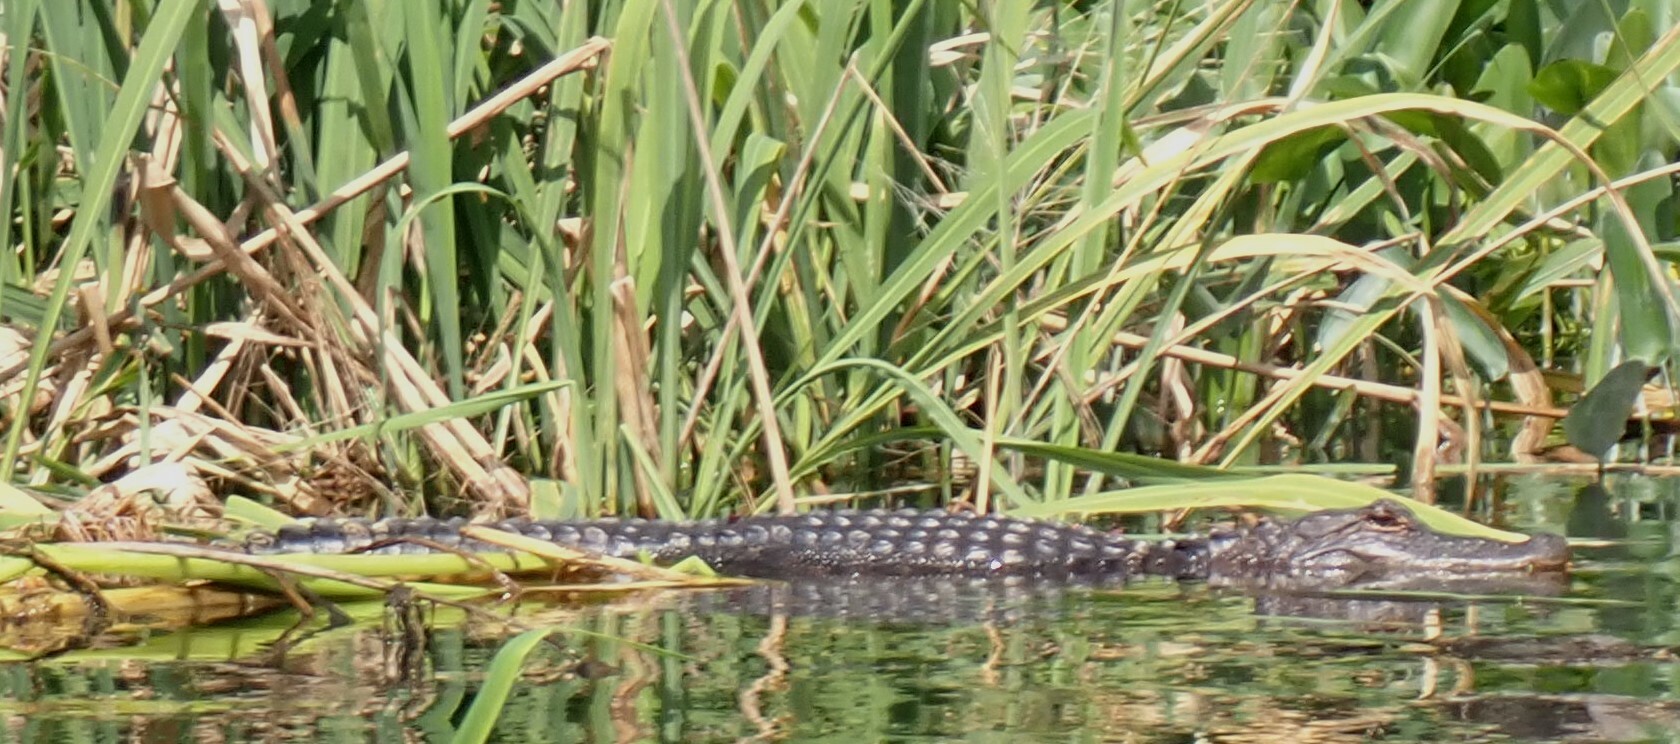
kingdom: Animalia
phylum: Chordata
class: Crocodylia
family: Alligatoridae
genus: Alligator
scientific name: Alligator mississippiensis
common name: American alligator
